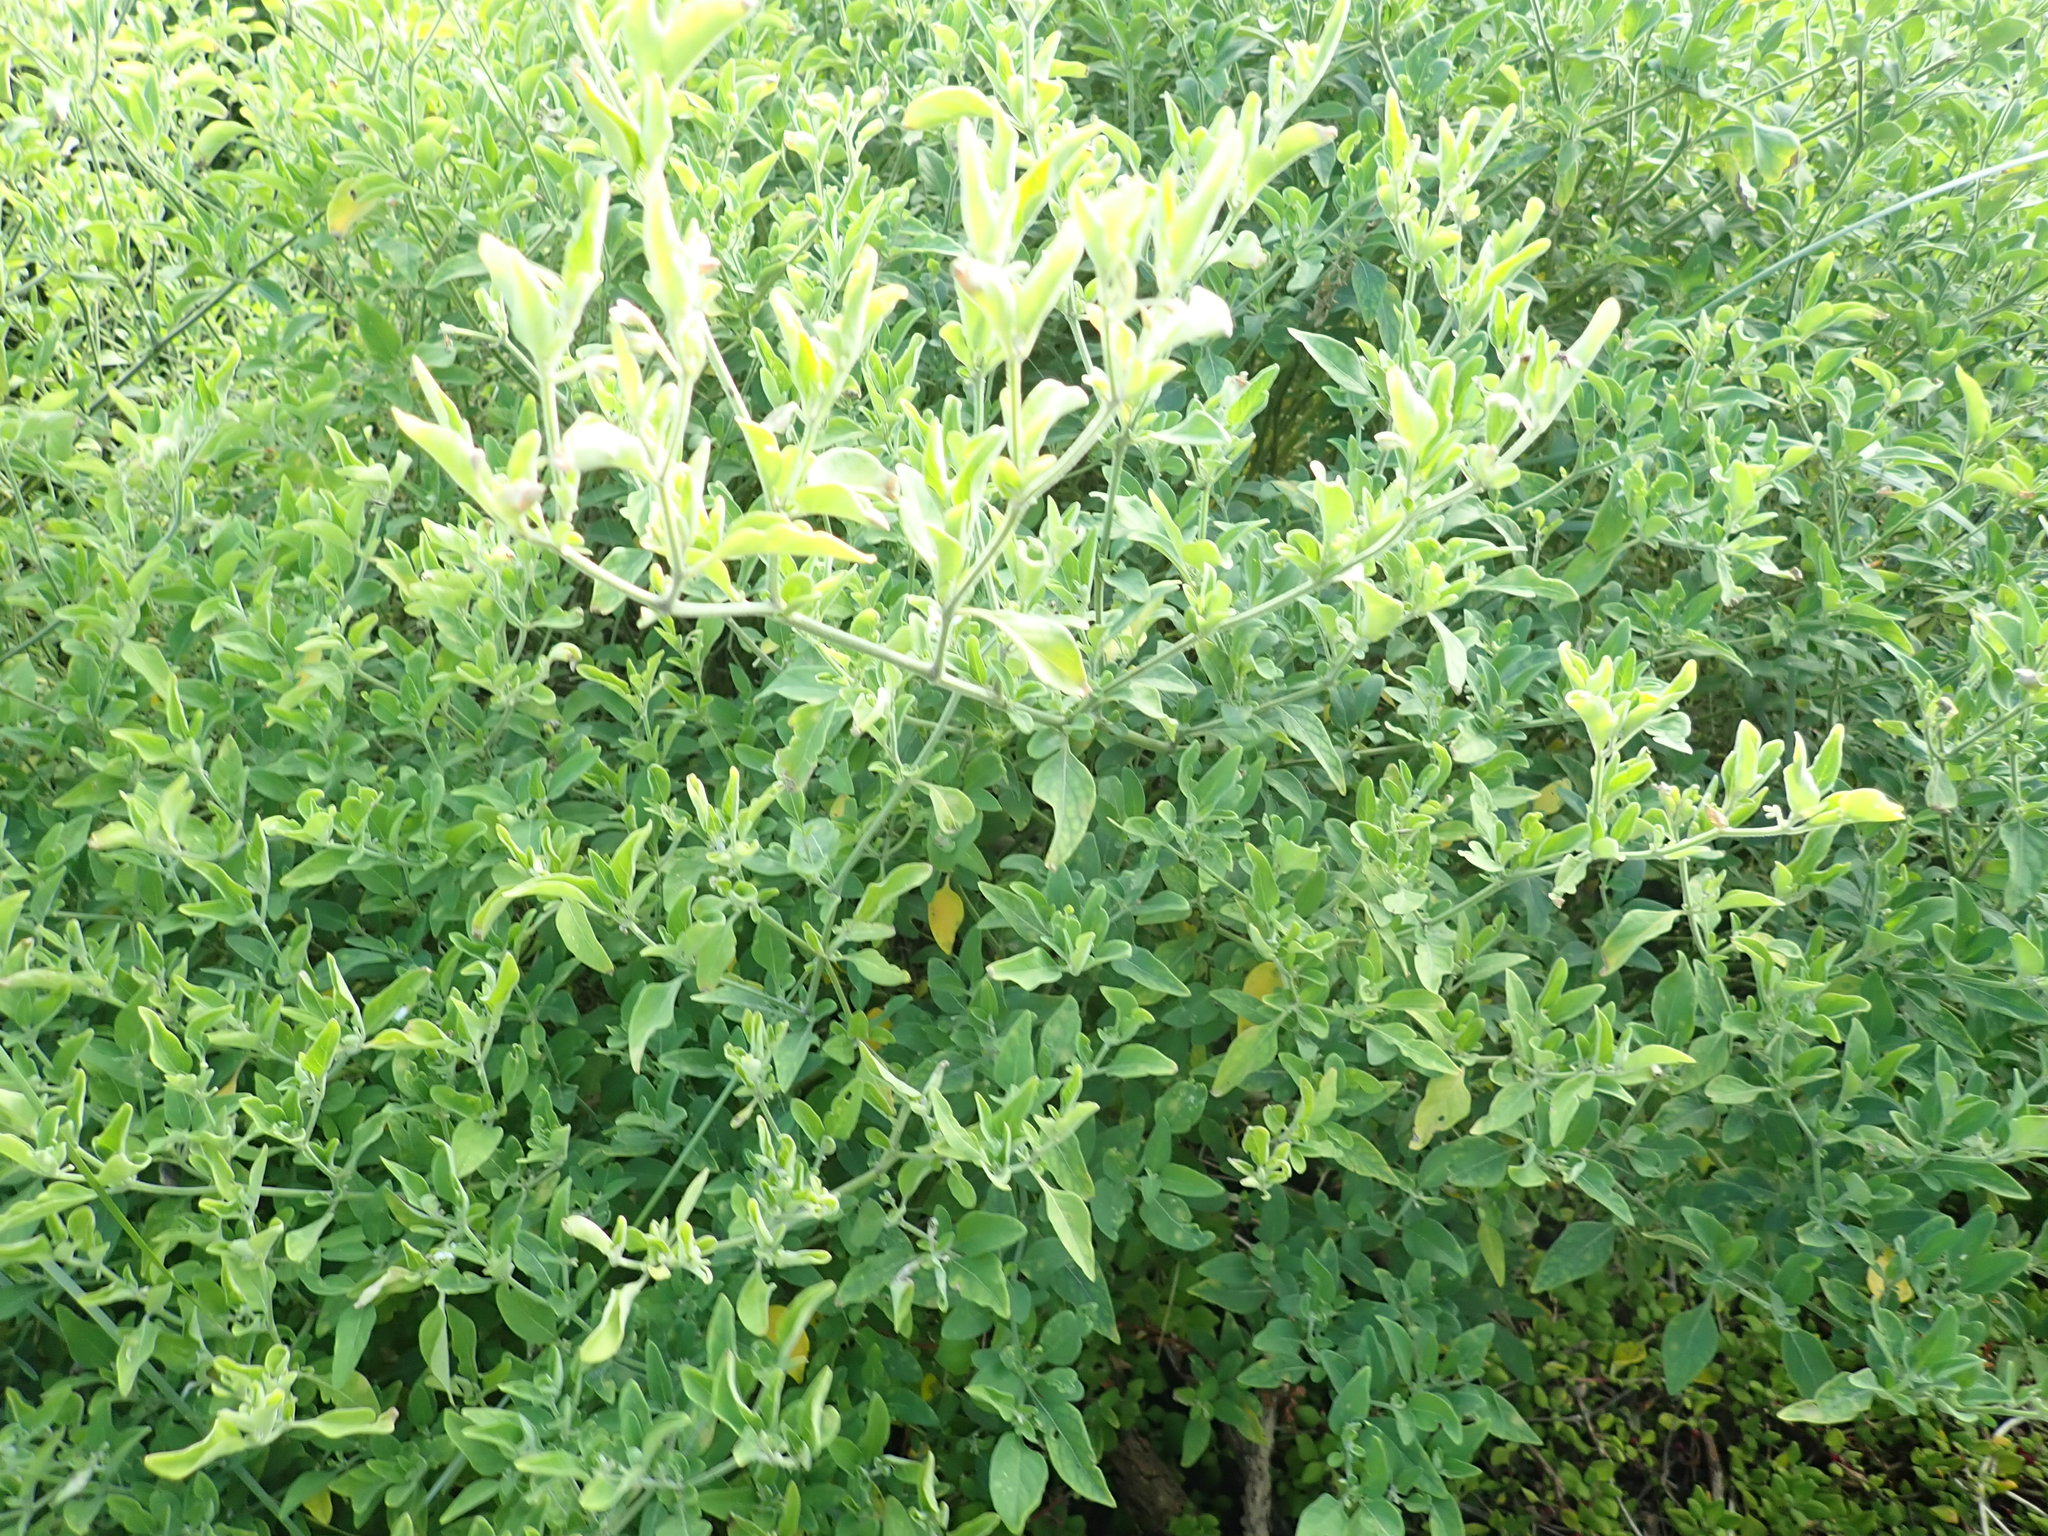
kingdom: Plantae
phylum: Tracheophyta
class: Magnoliopsida
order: Solanales
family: Solanaceae
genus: Solanum
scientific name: Solanum chenopodioides
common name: Tall nightshade
